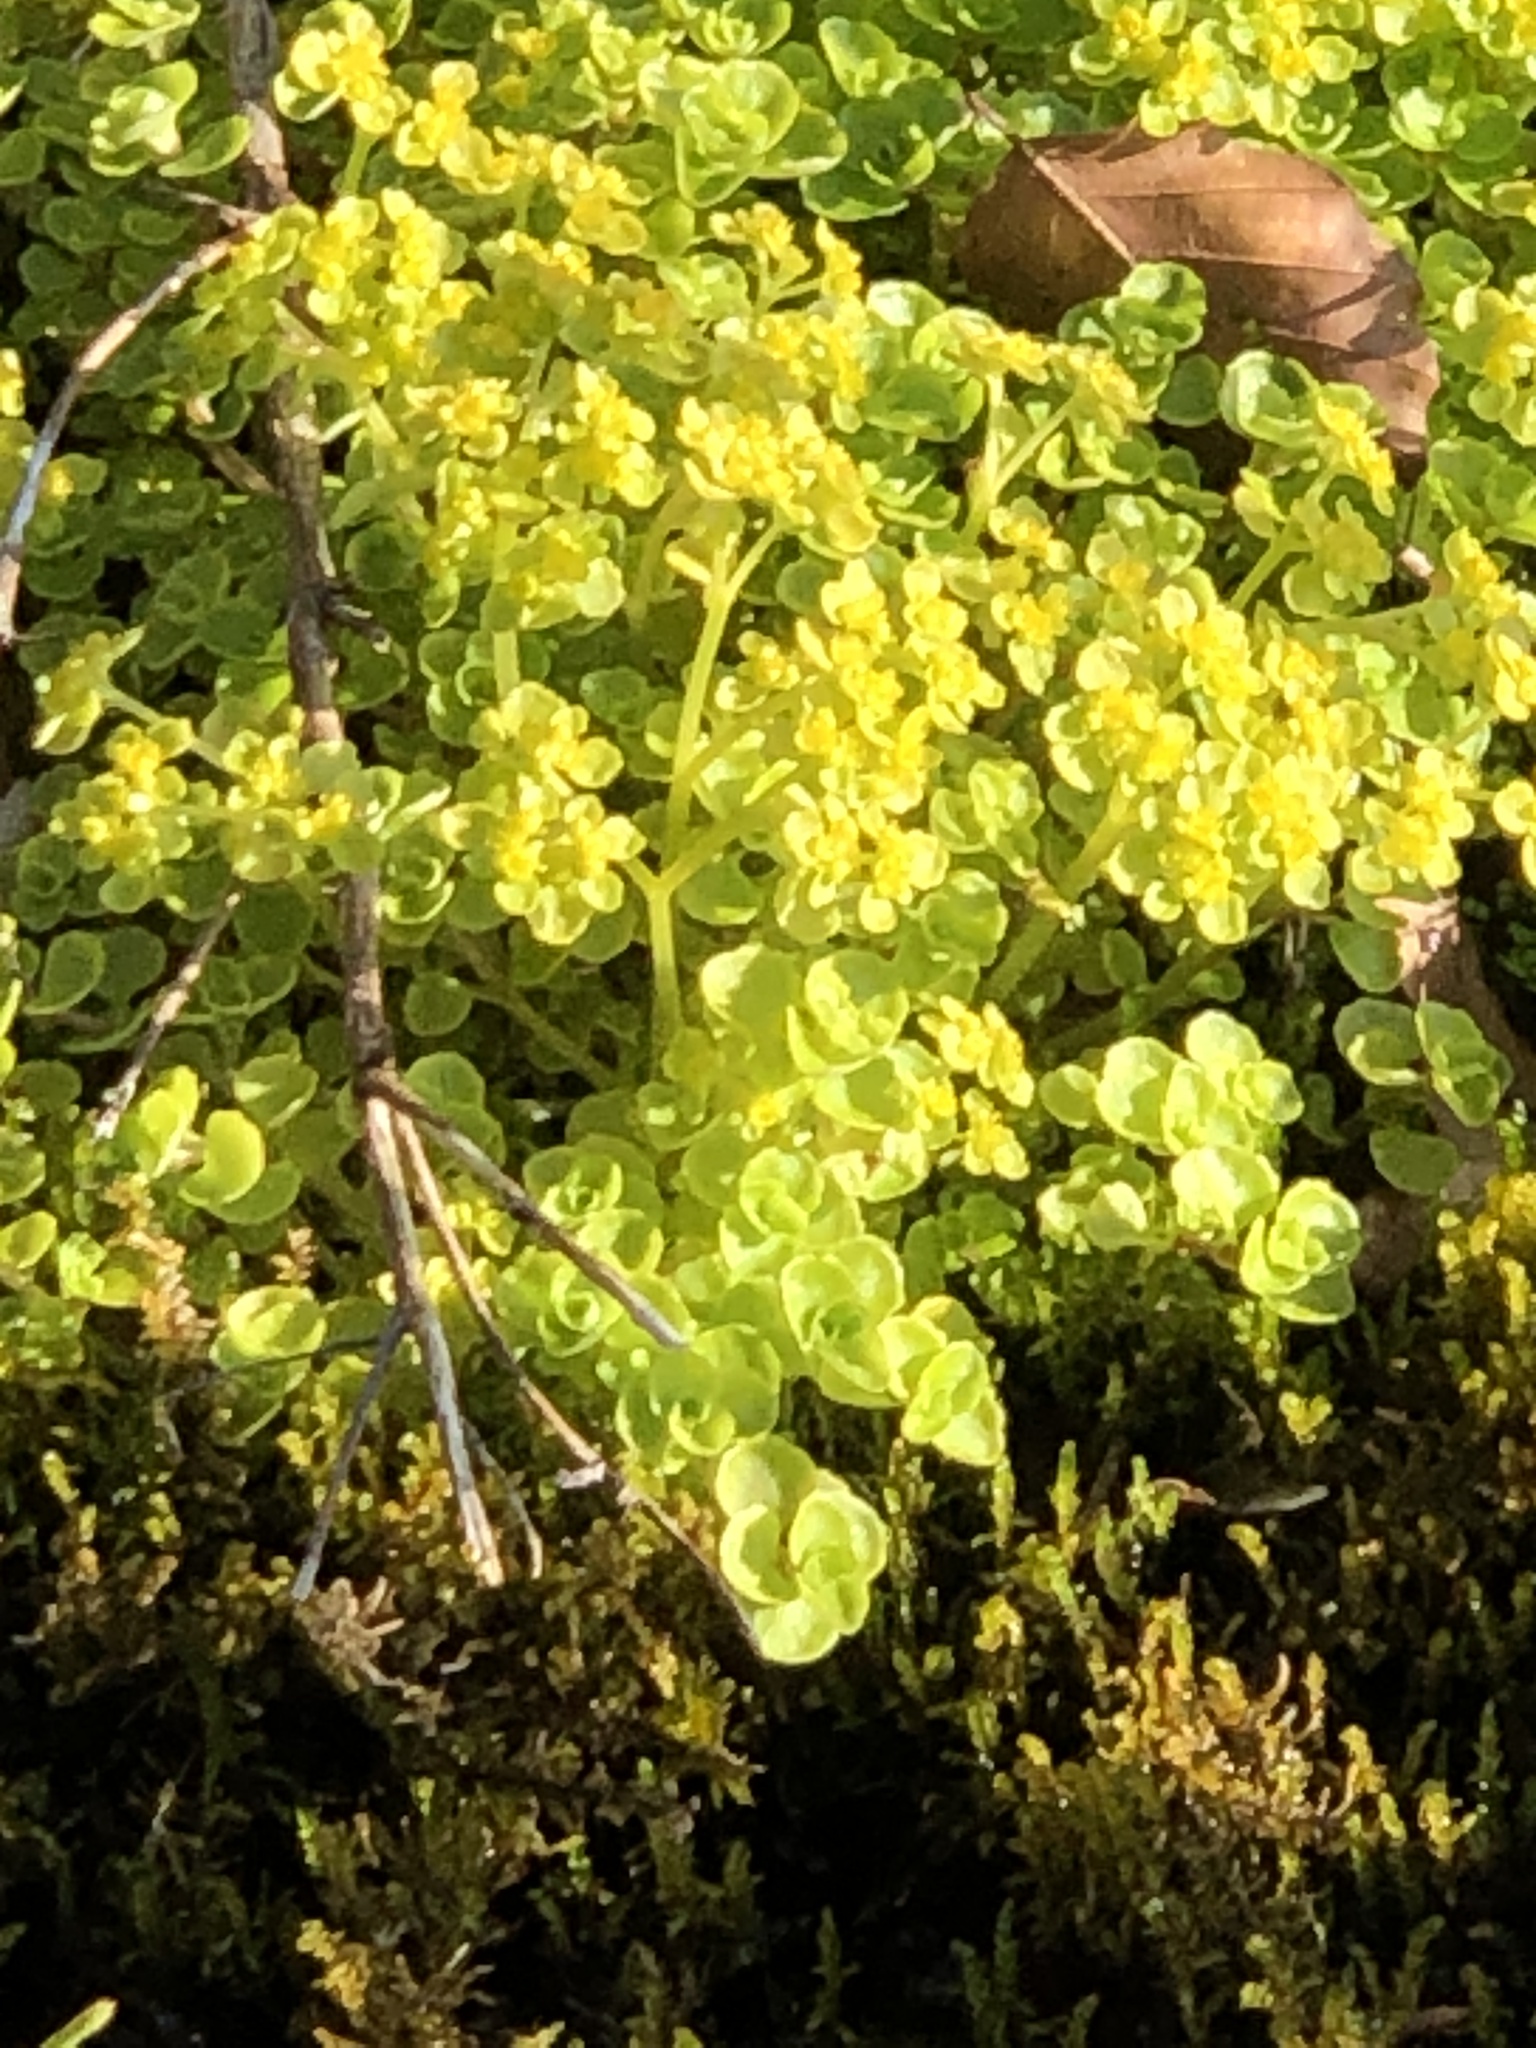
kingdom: Plantae
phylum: Tracheophyta
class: Magnoliopsida
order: Saxifragales
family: Saxifragaceae
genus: Chrysosplenium
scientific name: Chrysosplenium oppositifolium
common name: Opposite-leaved golden-saxifrage
